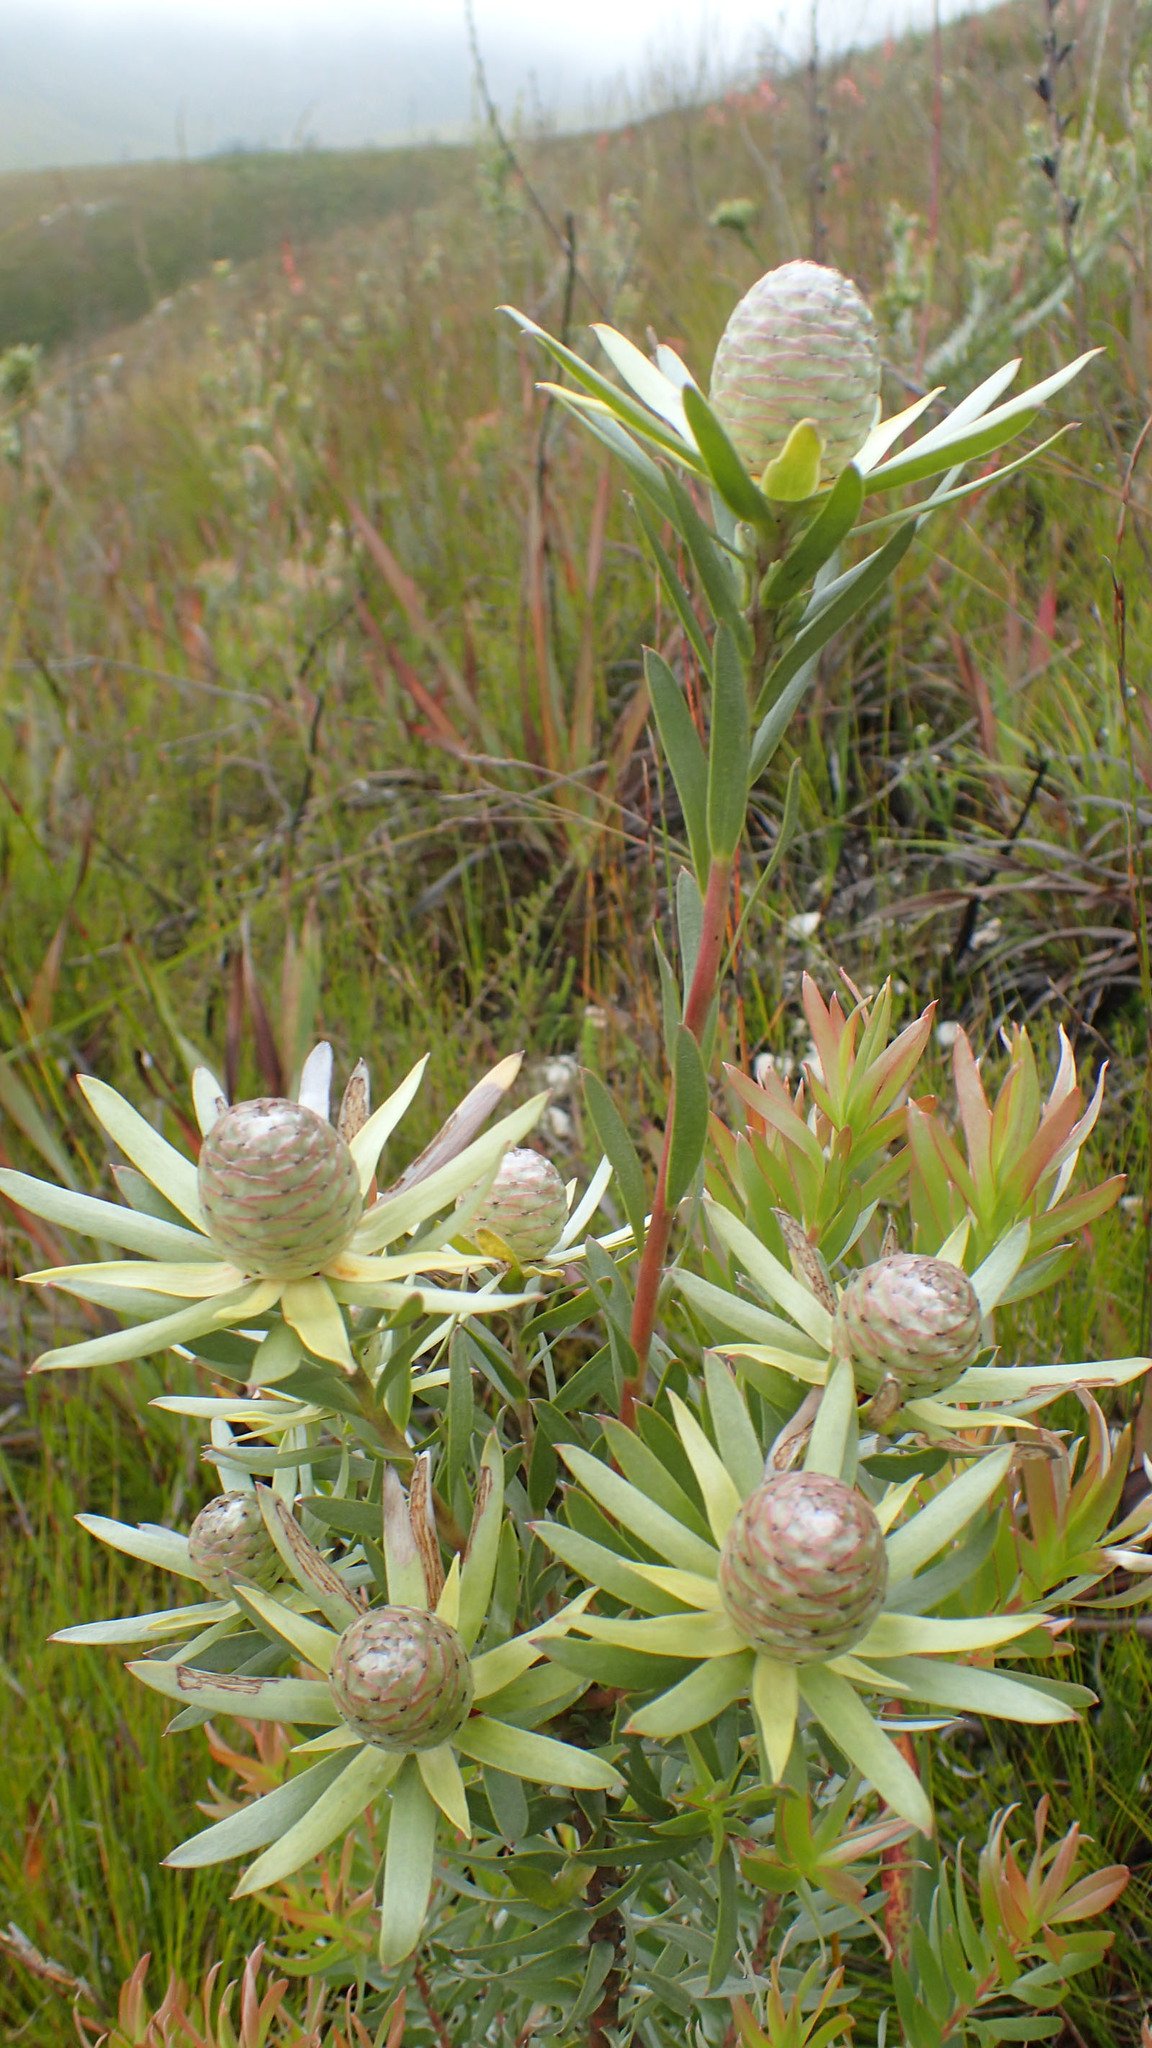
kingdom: Plantae
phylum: Tracheophyta
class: Magnoliopsida
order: Proteales
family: Proteaceae
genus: Leucadendron
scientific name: Leucadendron uliginosum
